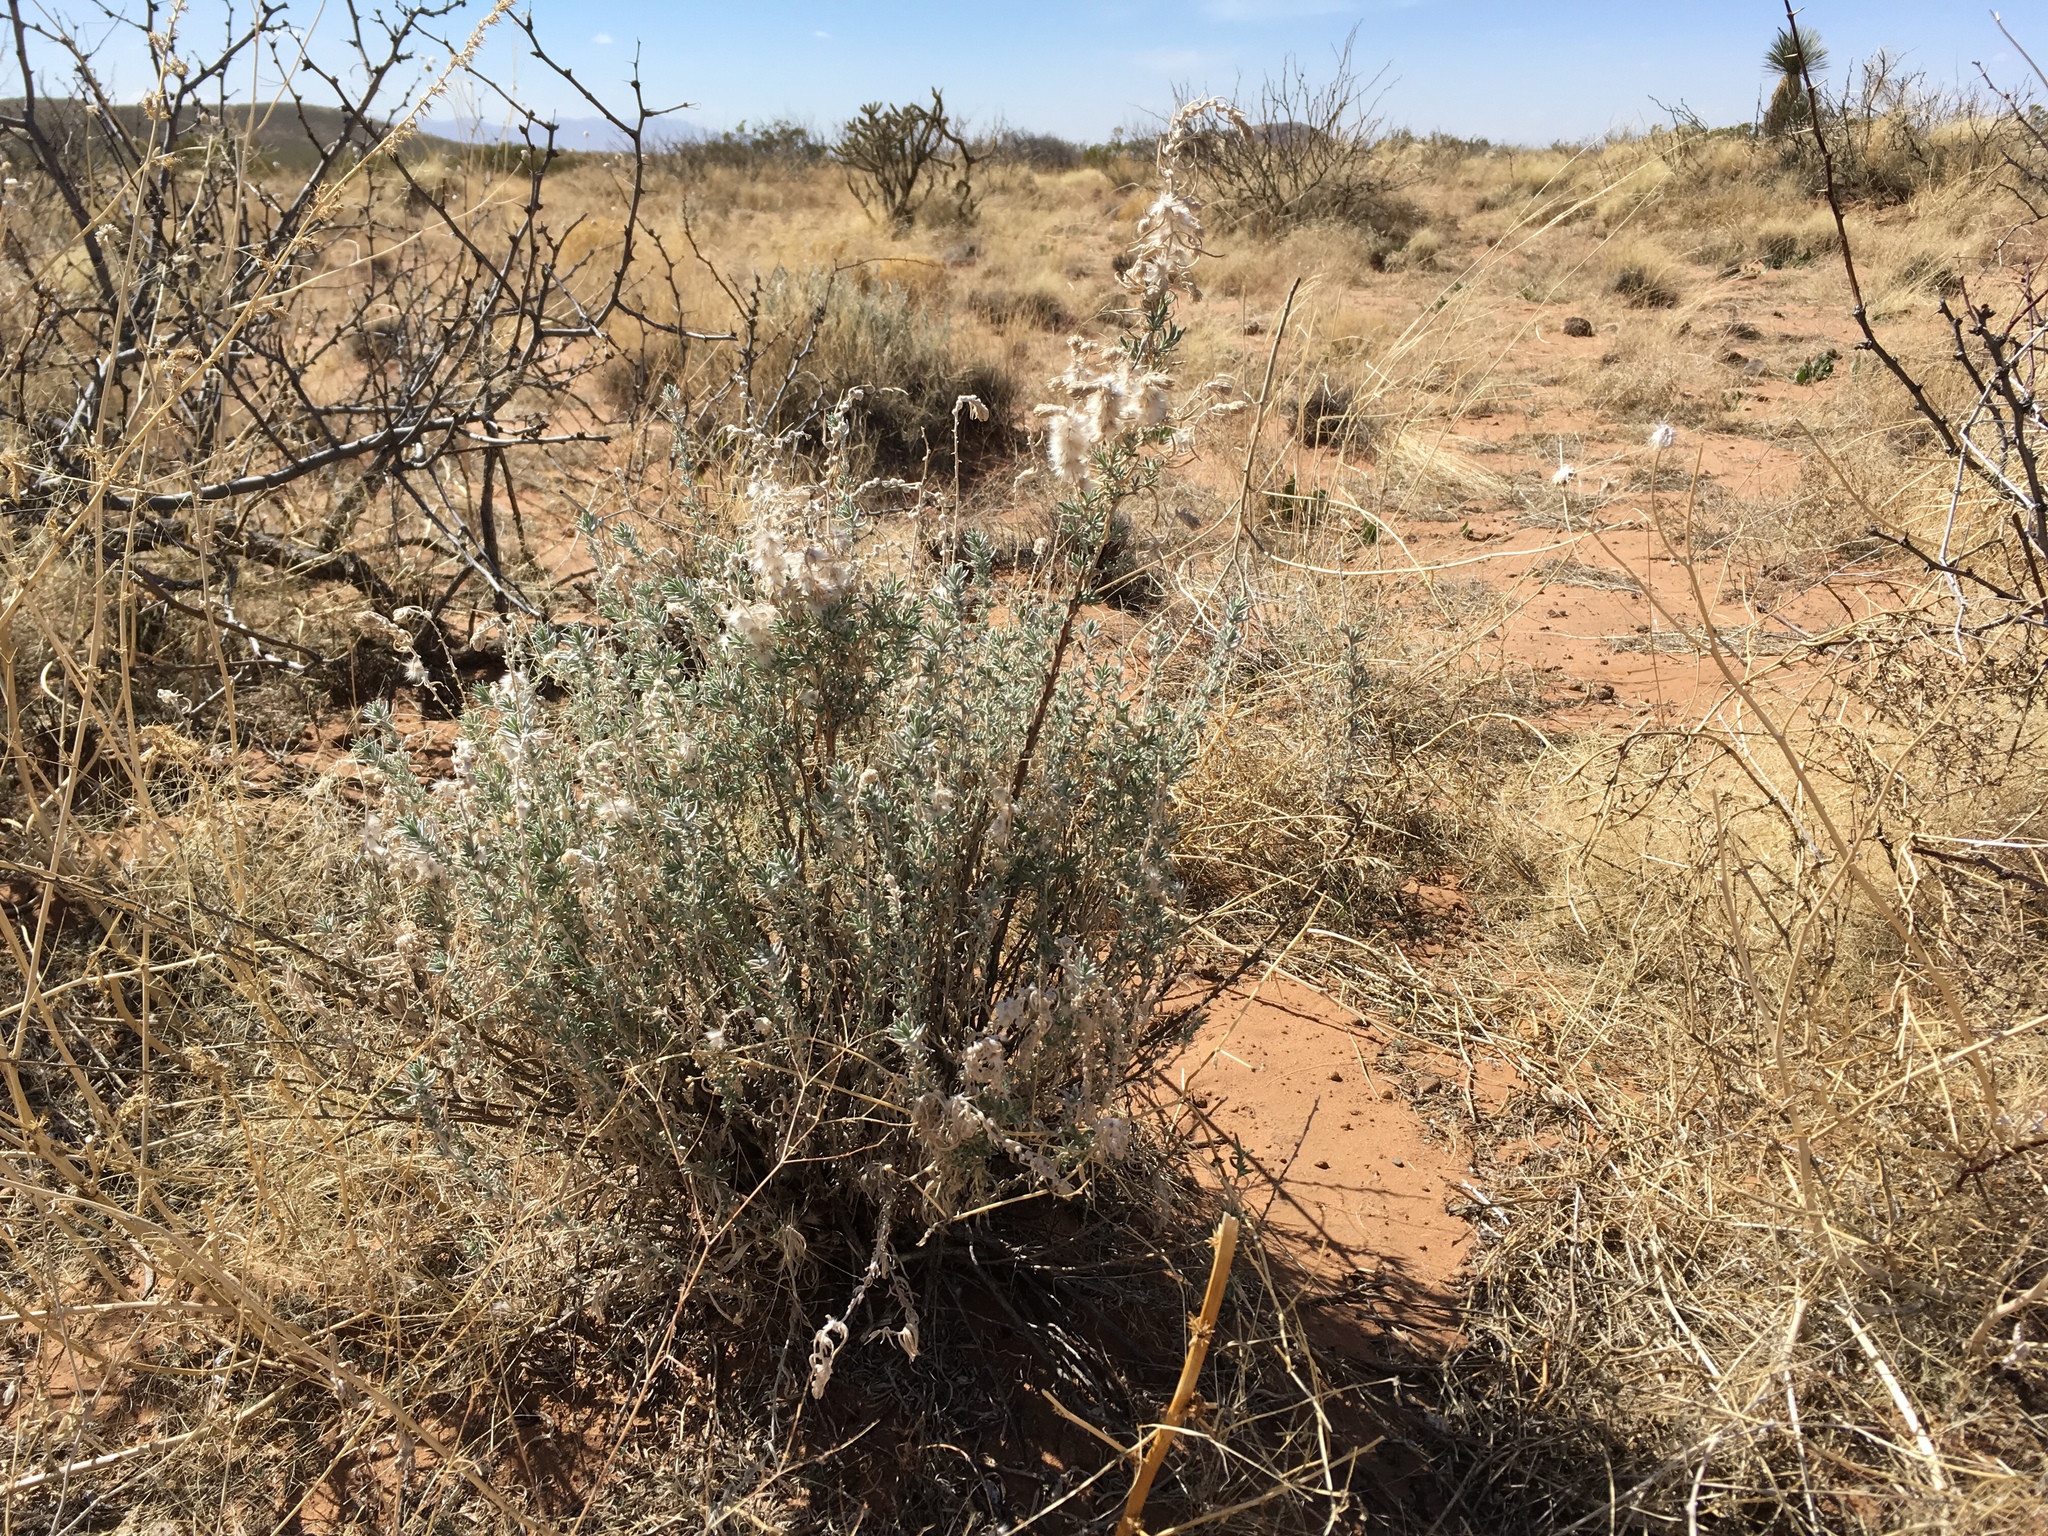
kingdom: Plantae
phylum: Tracheophyta
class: Magnoliopsida
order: Caryophyllales
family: Amaranthaceae
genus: Krascheninnikovia
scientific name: Krascheninnikovia lanata
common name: Winterfat
